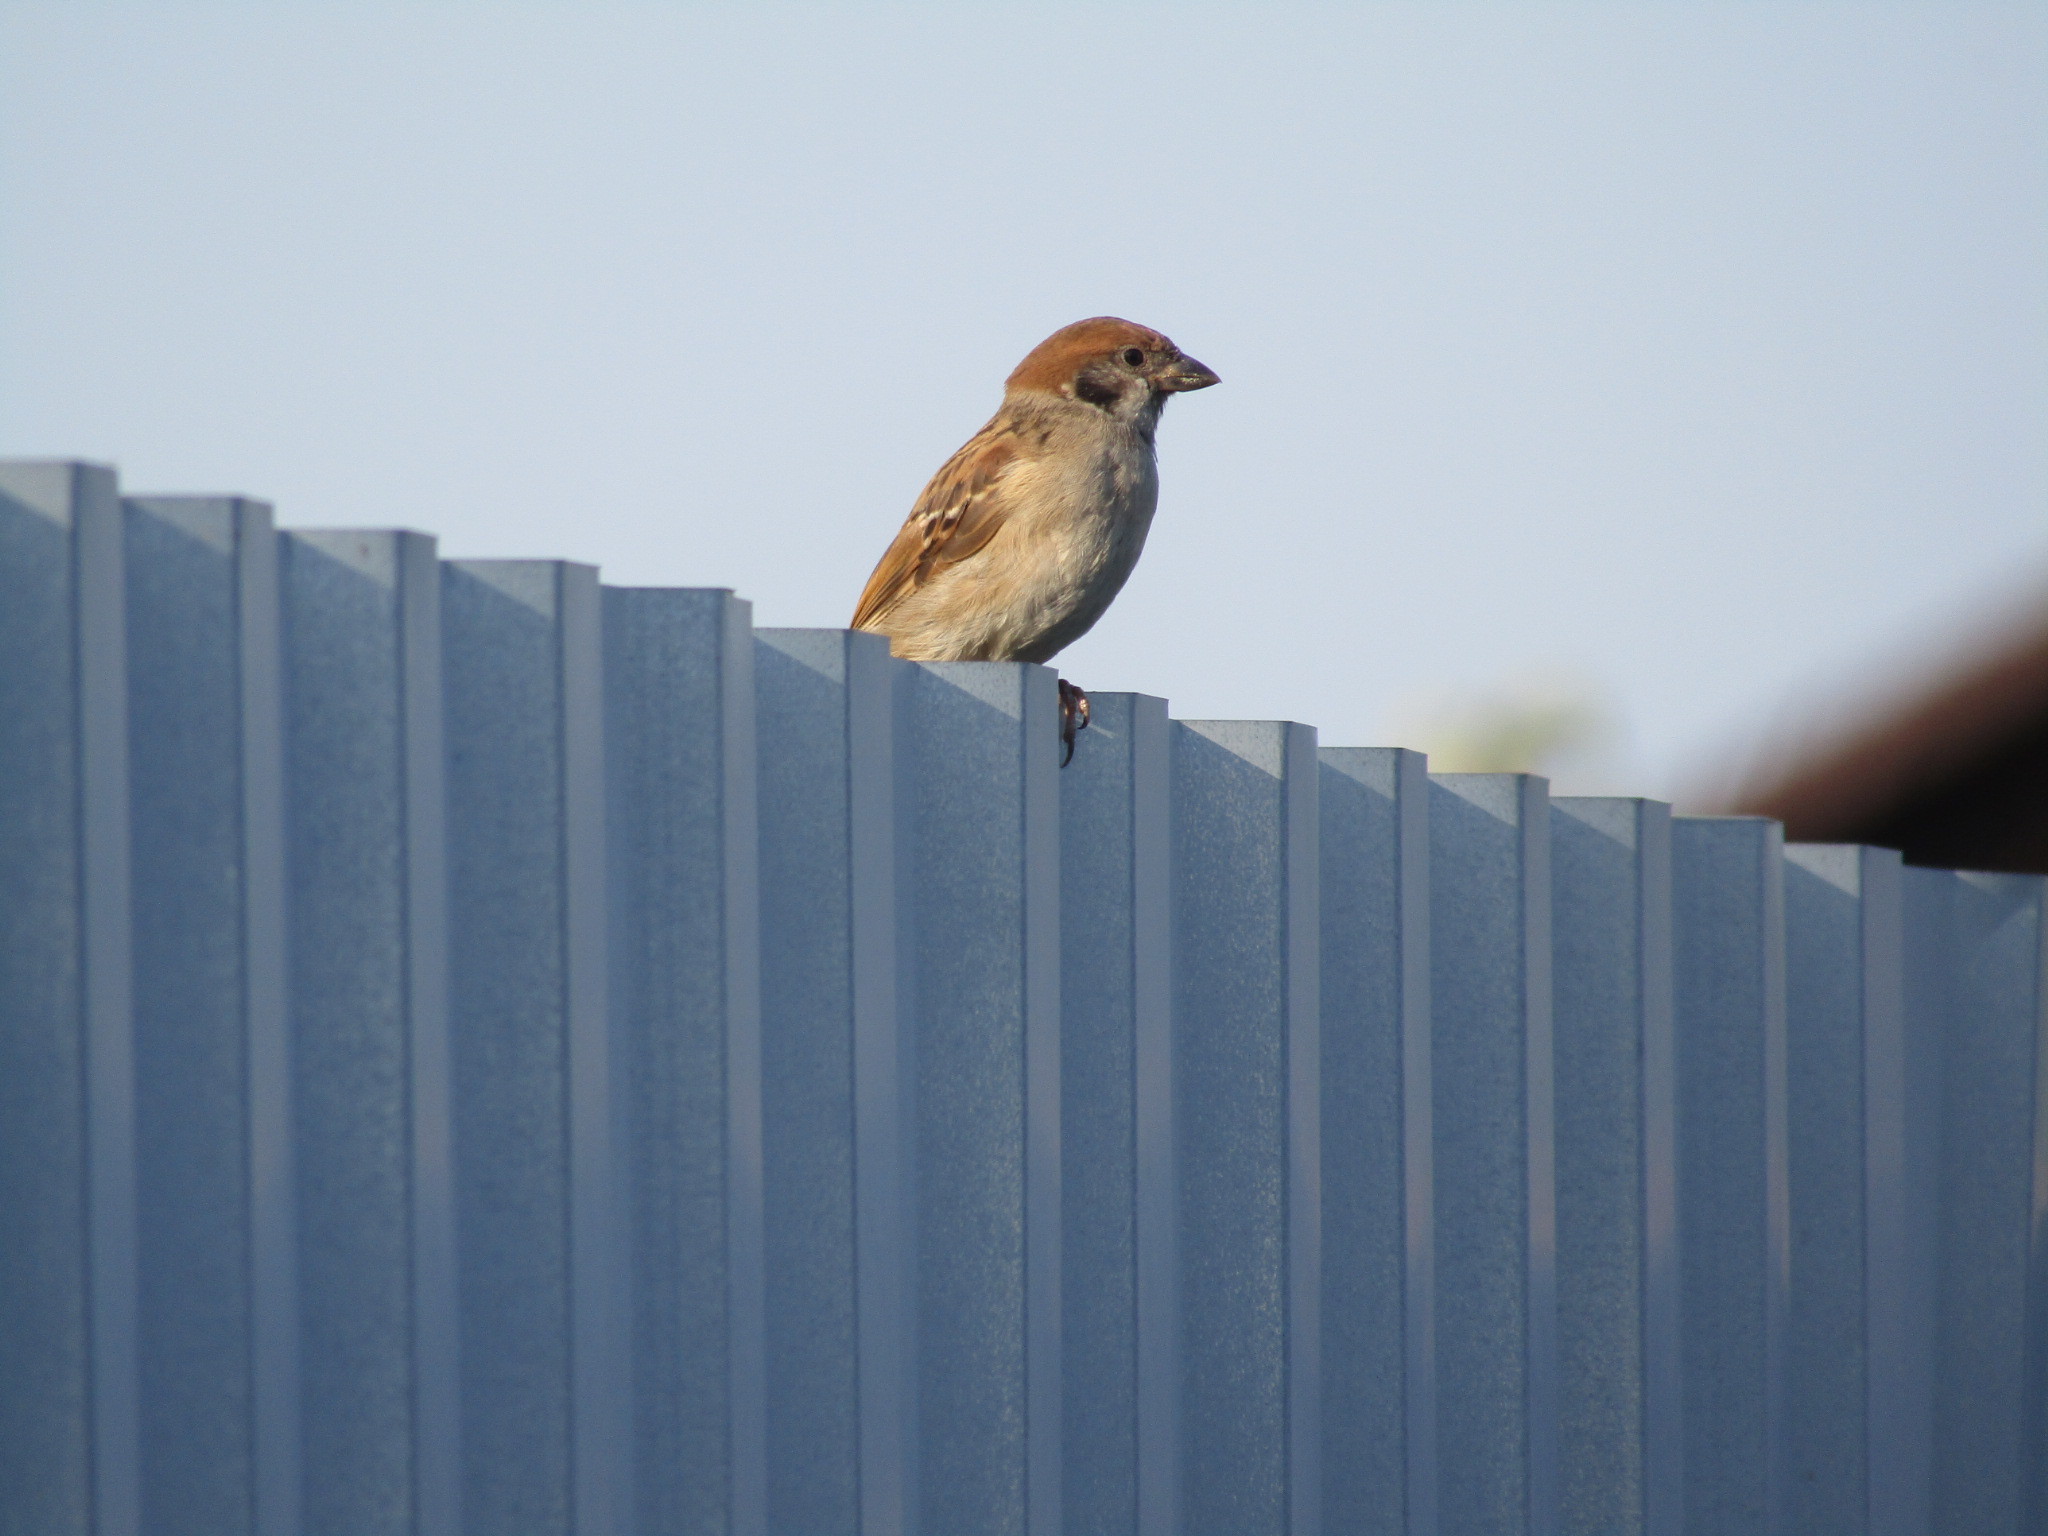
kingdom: Animalia
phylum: Chordata
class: Aves
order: Passeriformes
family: Passeridae
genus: Passer
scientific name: Passer montanus
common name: Eurasian tree sparrow
